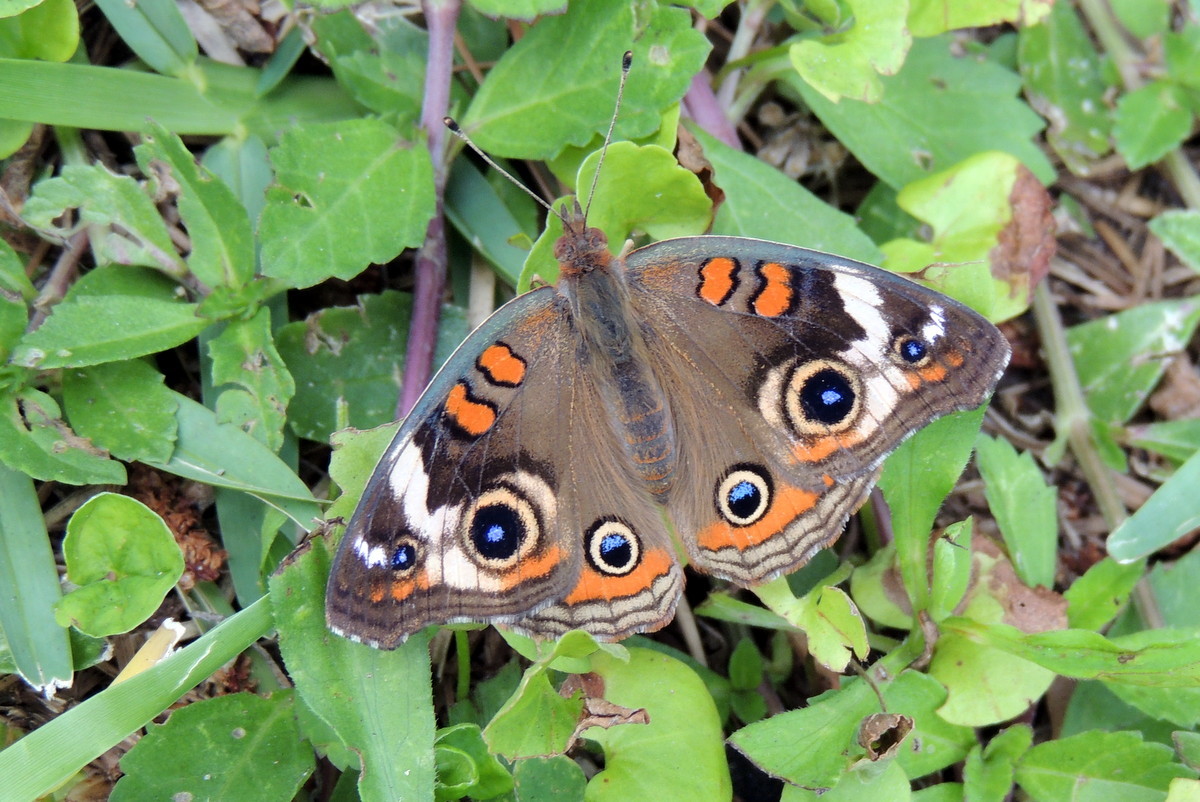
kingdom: Animalia
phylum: Arthropoda
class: Insecta
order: Lepidoptera
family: Nymphalidae
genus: Junonia
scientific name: Junonia coenia
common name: Common buckeye
